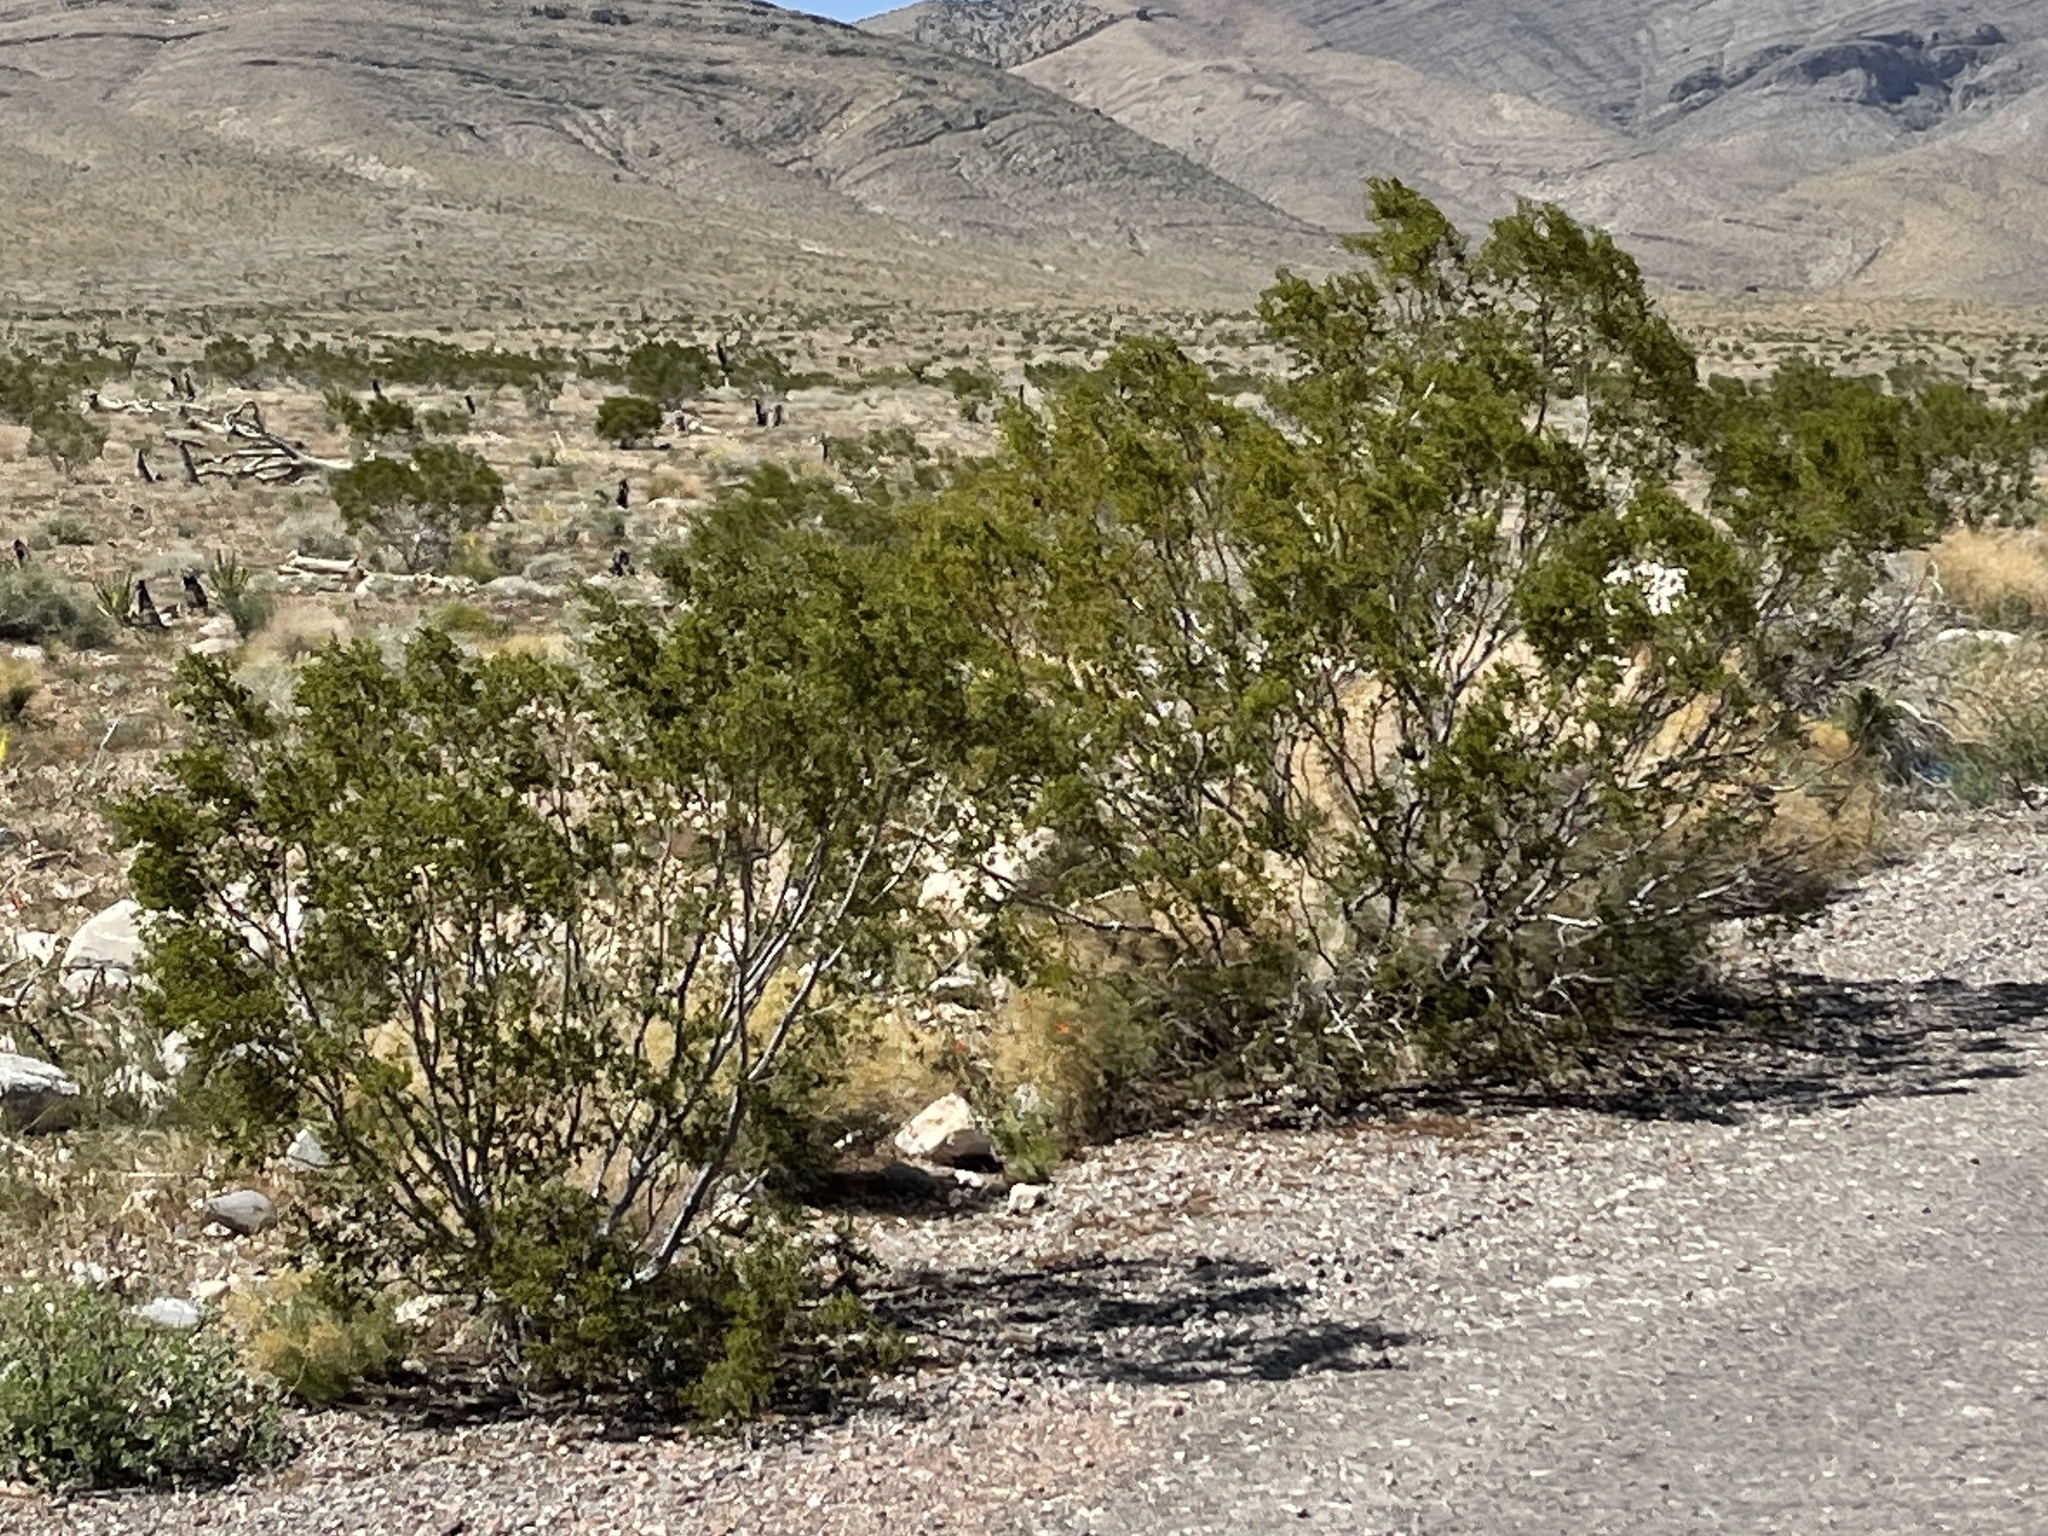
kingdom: Plantae
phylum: Tracheophyta
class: Magnoliopsida
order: Zygophyllales
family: Zygophyllaceae
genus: Larrea
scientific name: Larrea tridentata
